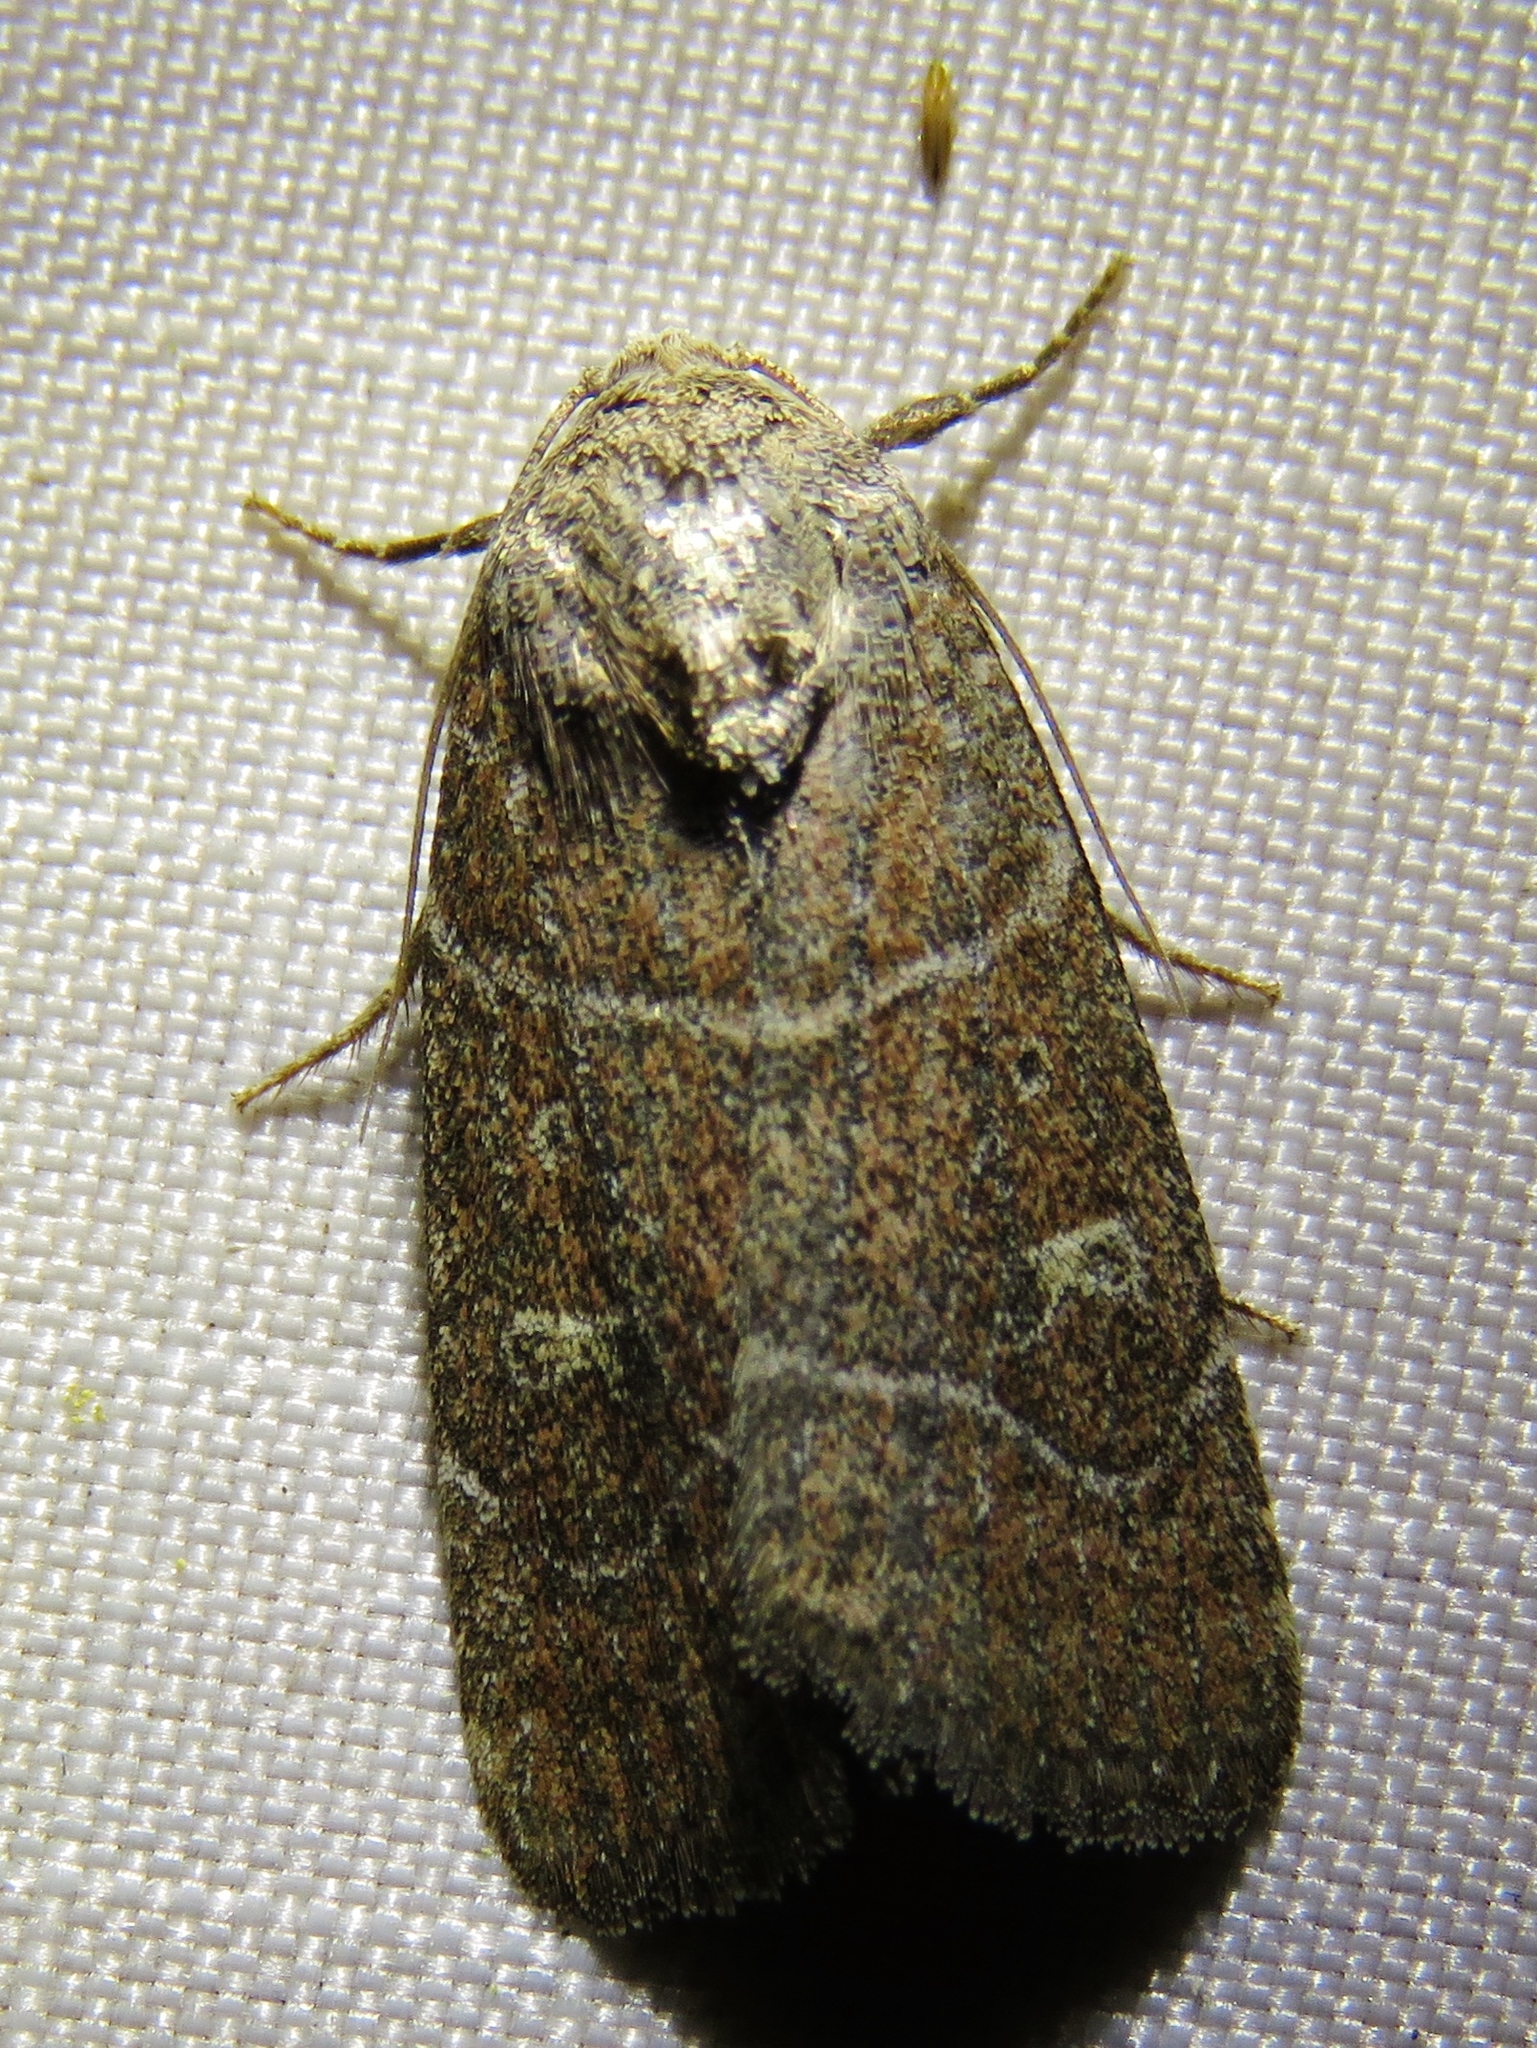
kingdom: Animalia
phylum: Arthropoda
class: Insecta
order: Lepidoptera
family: Noctuidae
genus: Elaphria
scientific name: Elaphria grata
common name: Grateful midget moth
